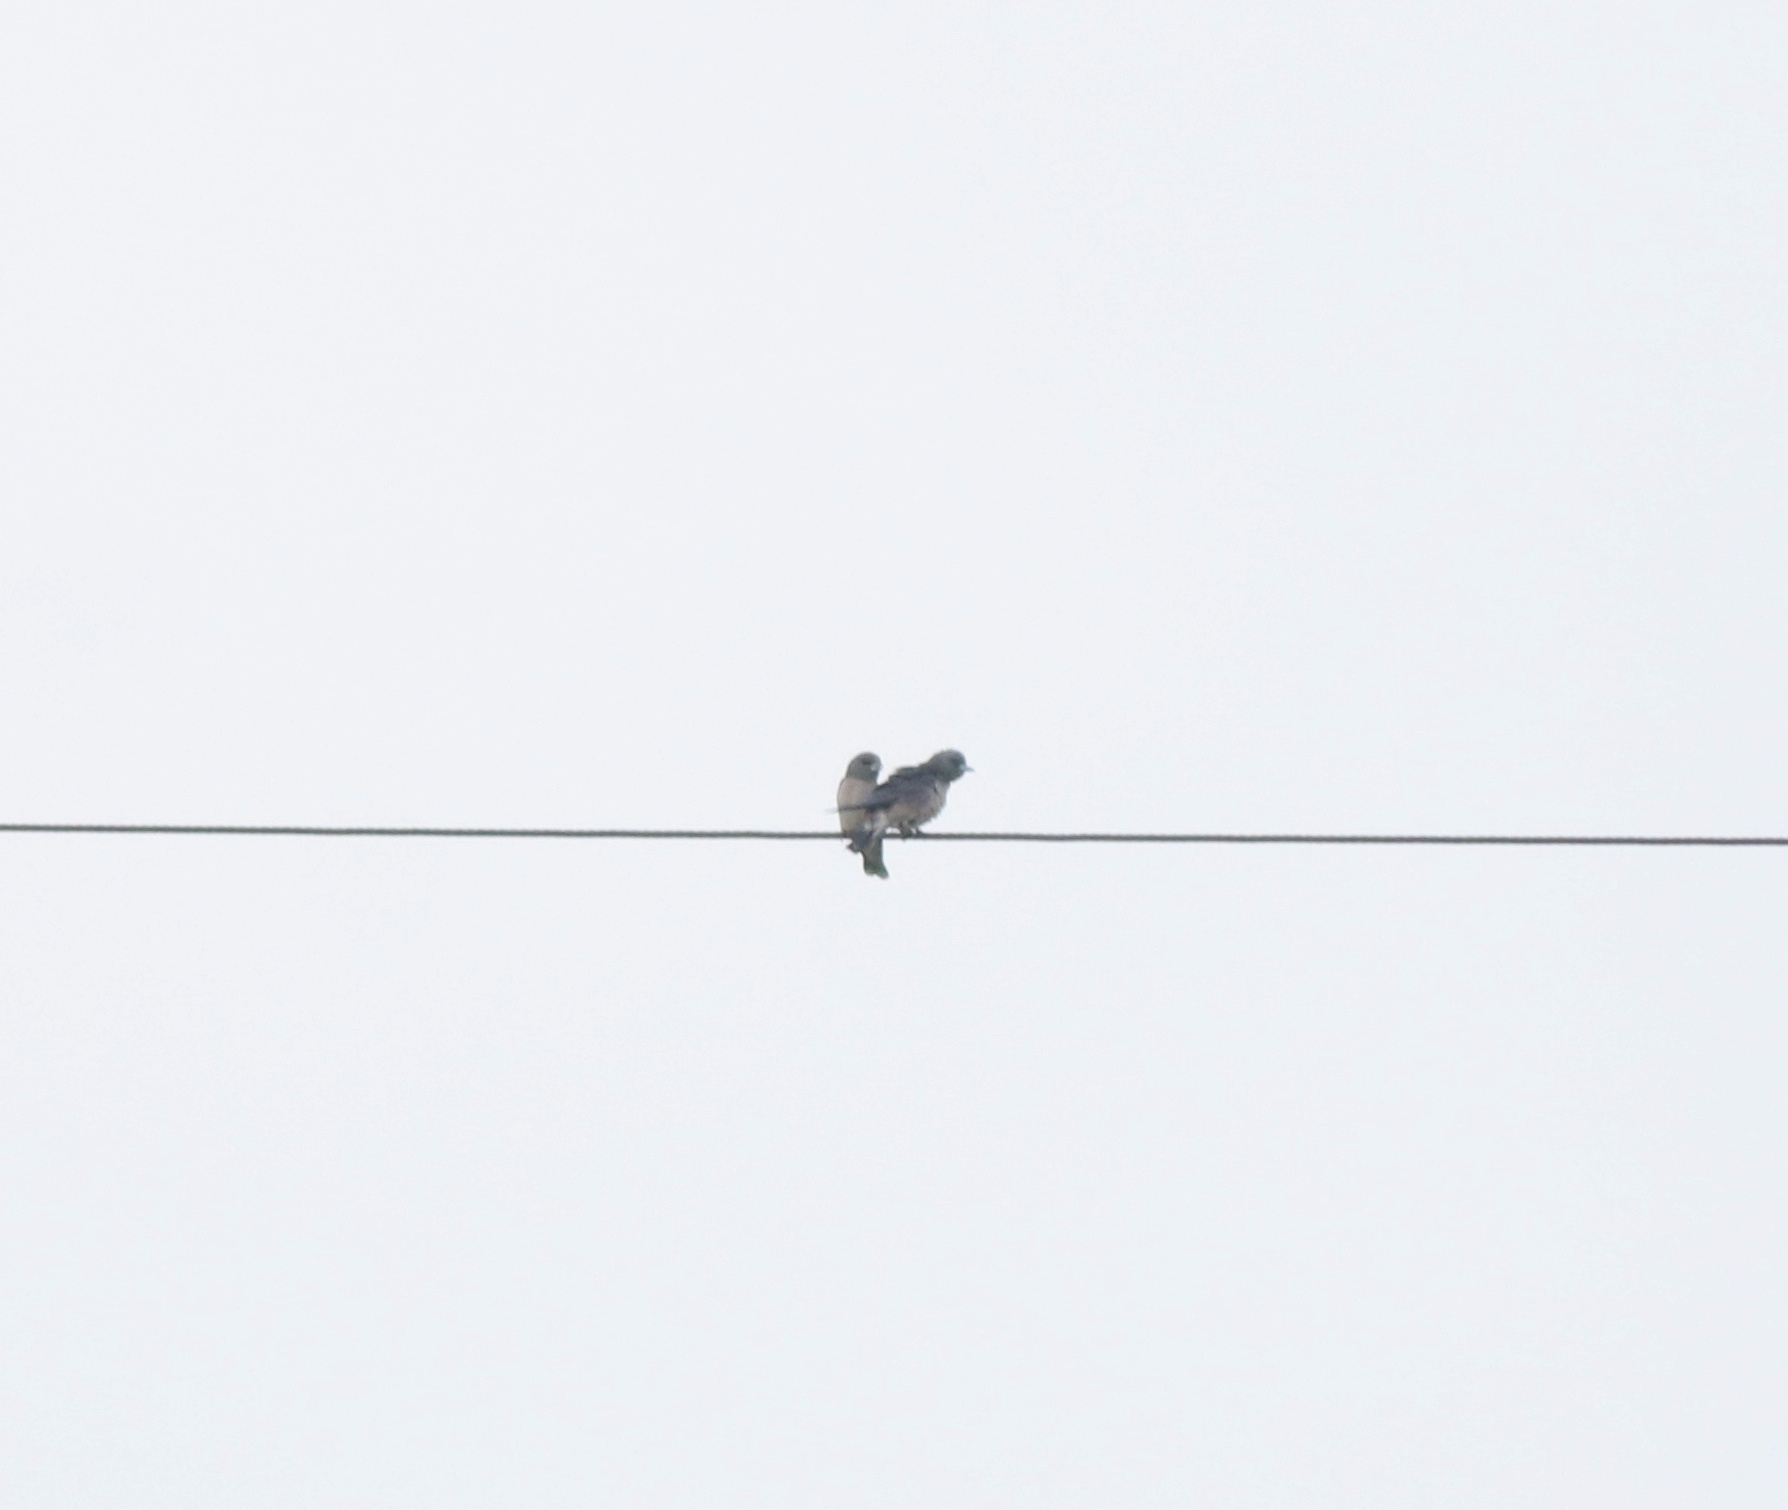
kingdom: Animalia
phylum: Chordata
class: Aves
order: Passeriformes
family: Artamidae
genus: Artamus
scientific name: Artamus fuscus
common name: Ashy woodswallow
